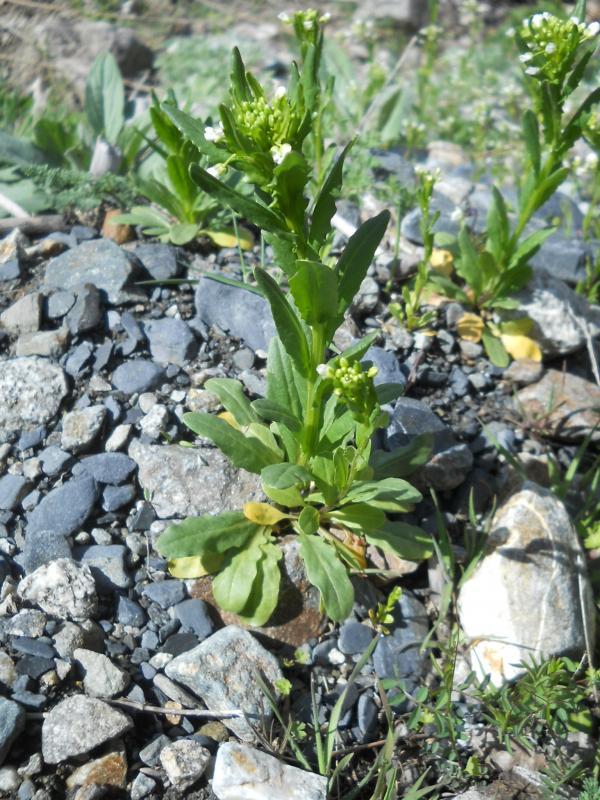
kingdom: Plantae
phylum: Tracheophyta
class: Magnoliopsida
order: Brassicales
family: Brassicaceae
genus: Thlaspi
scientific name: Thlaspi arvense
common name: Field pennycress
